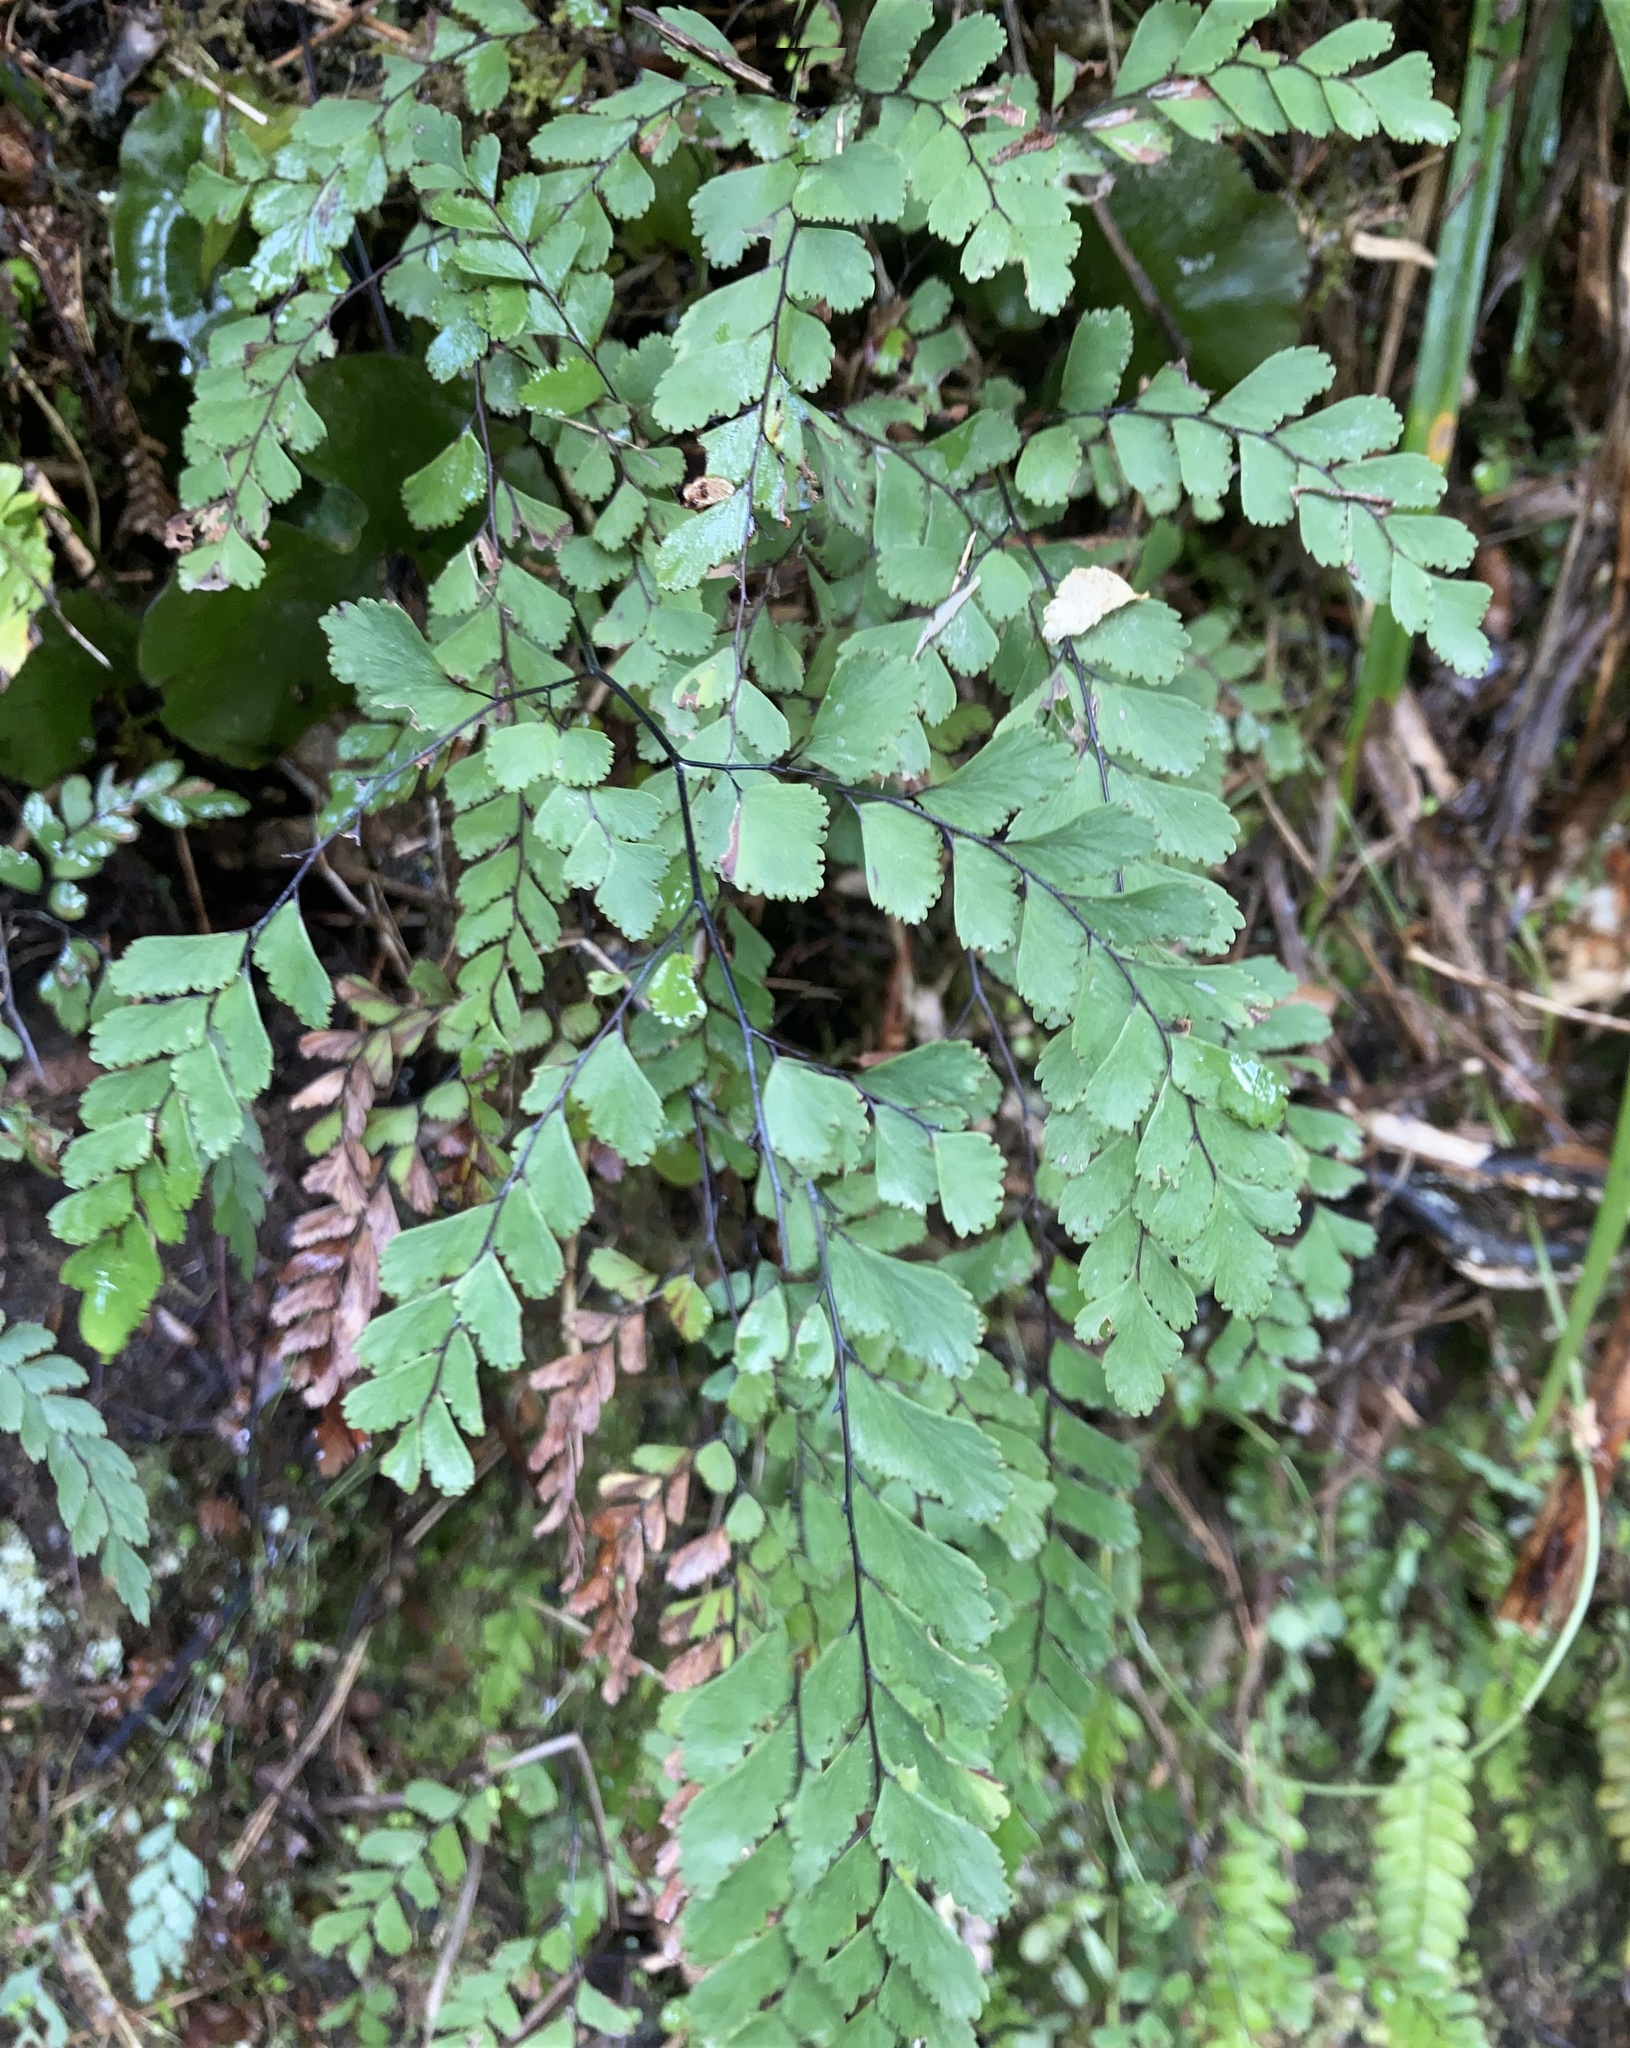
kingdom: Plantae
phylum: Tracheophyta
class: Polypodiopsida
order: Polypodiales
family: Pteridaceae
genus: Adiantum
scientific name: Adiantum cunninghamii
